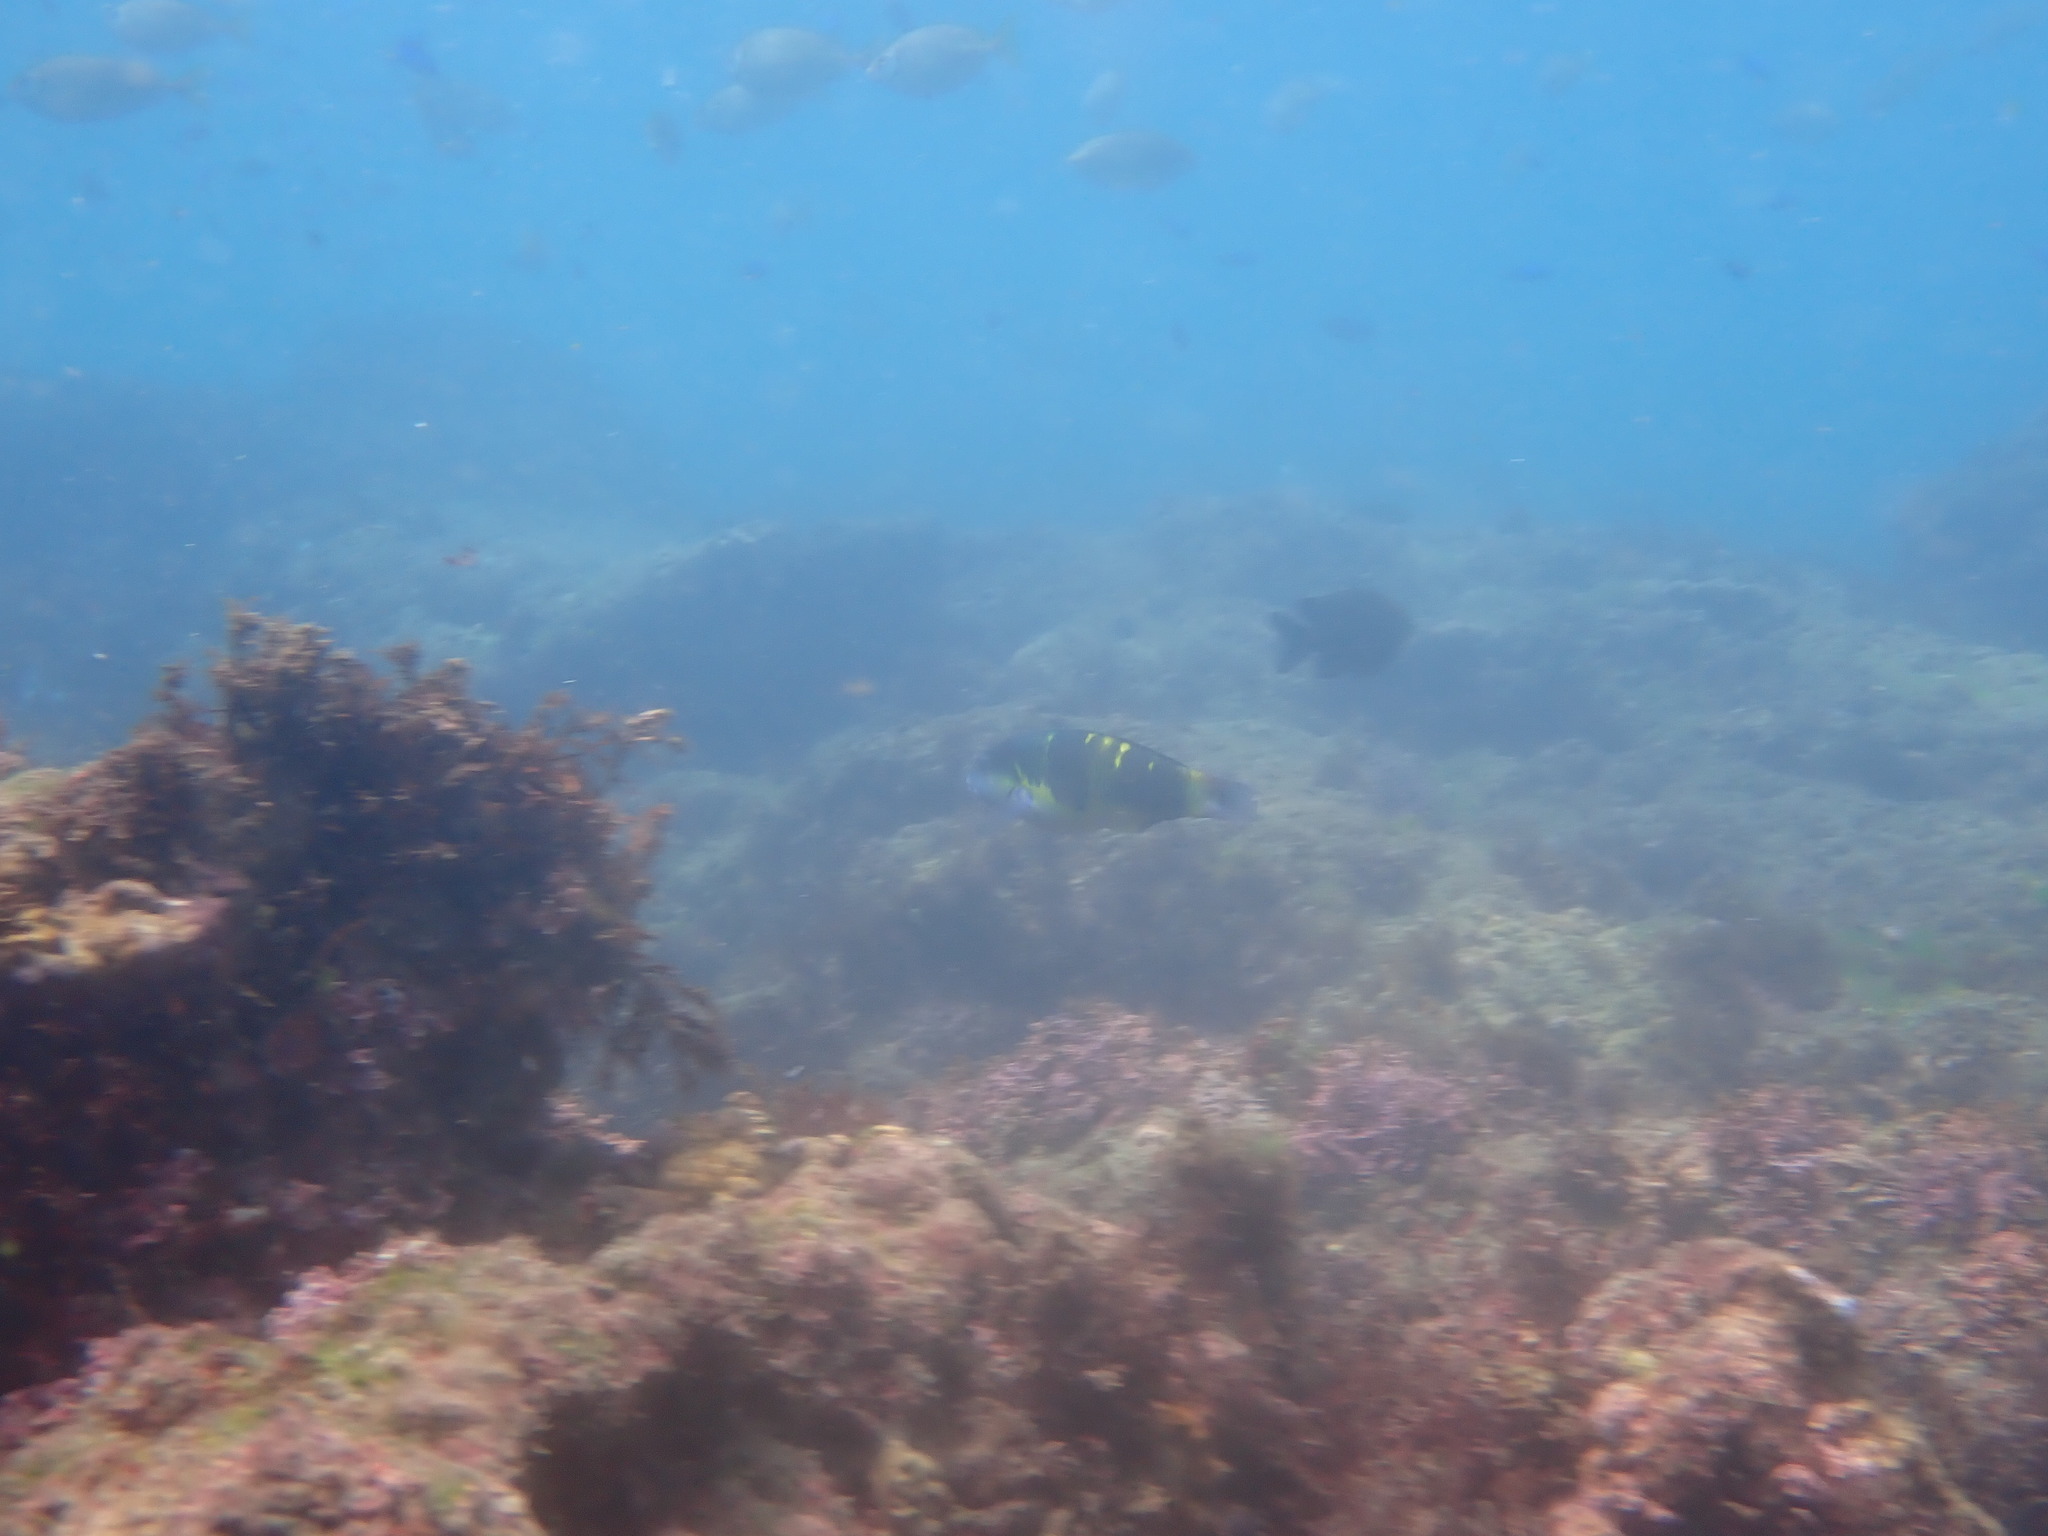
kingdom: Animalia
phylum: Chordata
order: Perciformes
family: Labridae
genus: Thalassoma
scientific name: Thalassoma jansenii
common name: Jansen's wrasse
